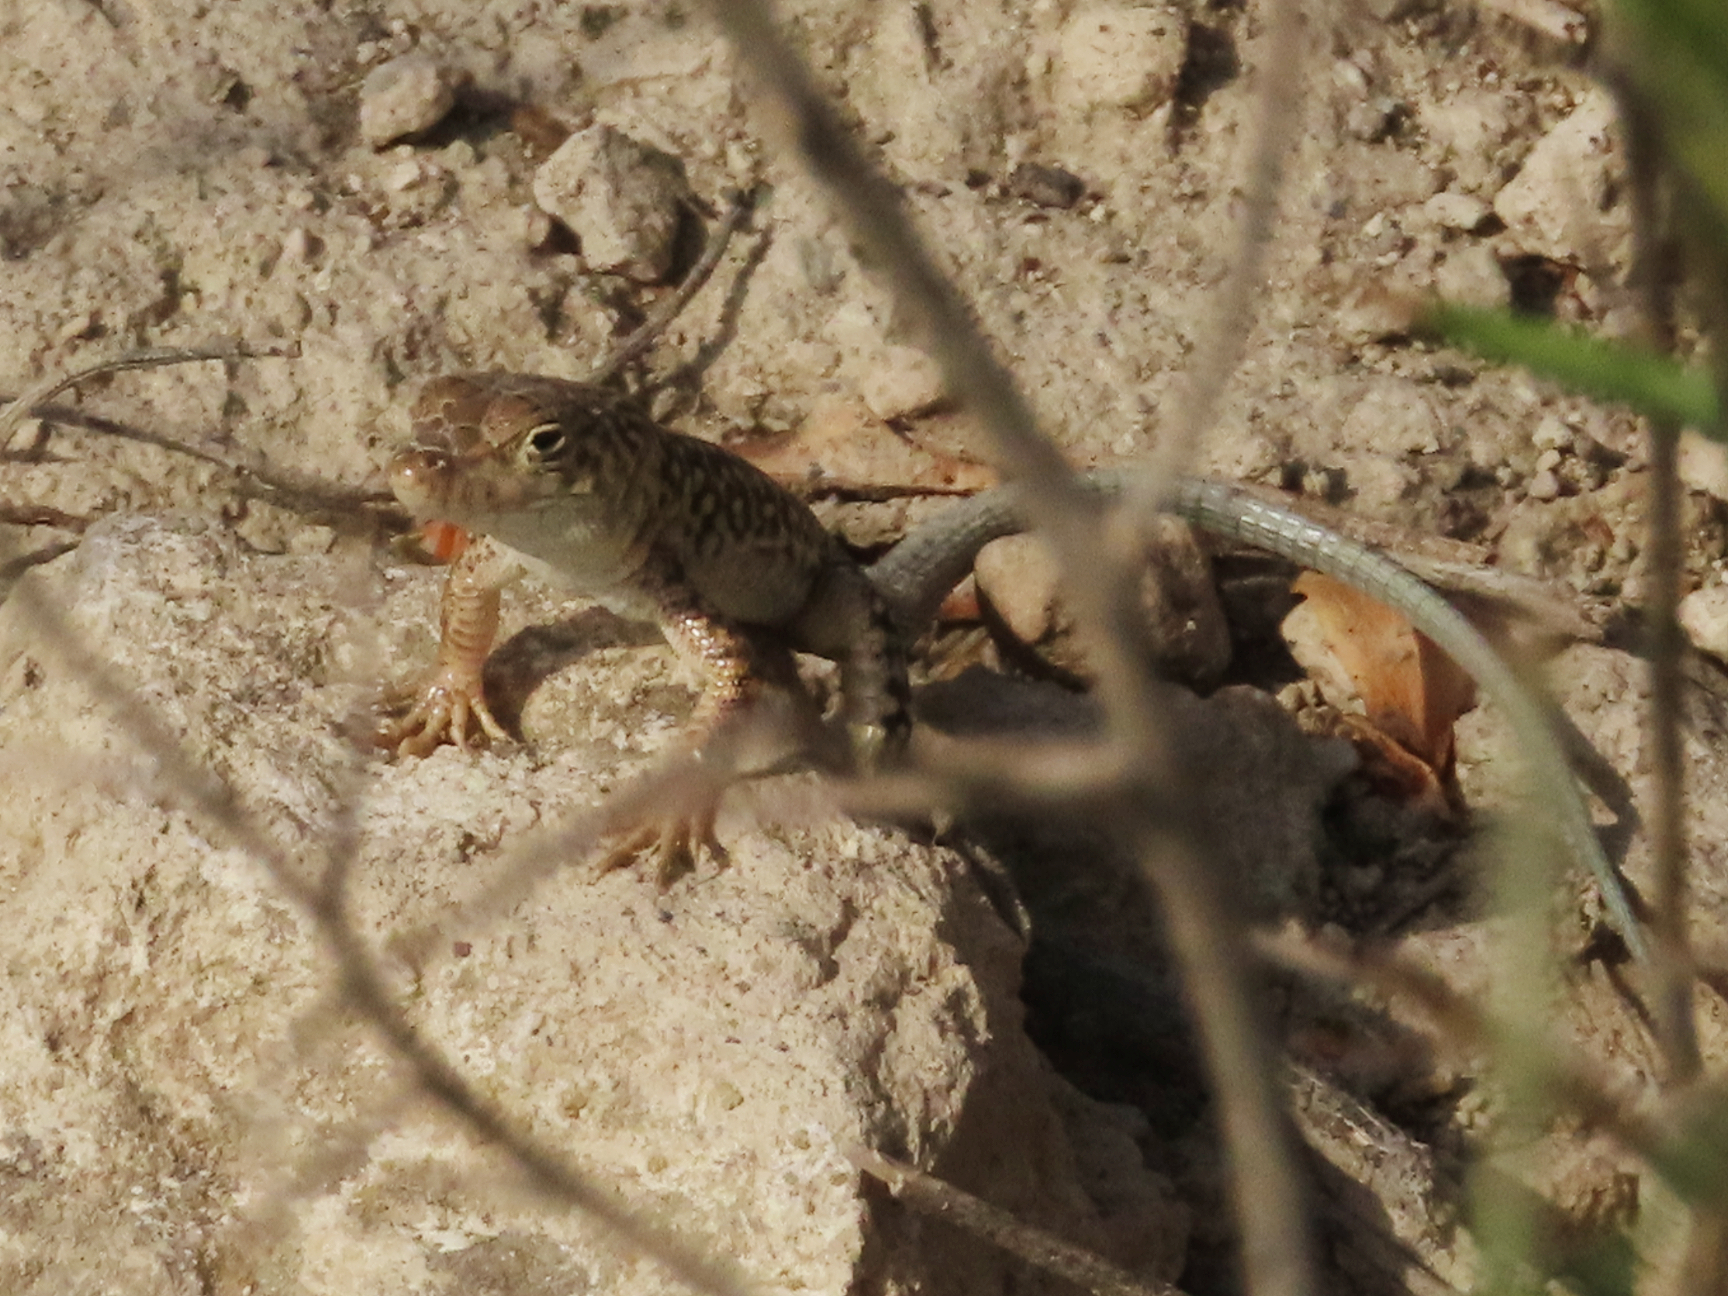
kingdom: Animalia
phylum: Chordata
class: Squamata
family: Lacertidae
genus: Eremias
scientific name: Eremias strauchi
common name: Strauch's racerunner
